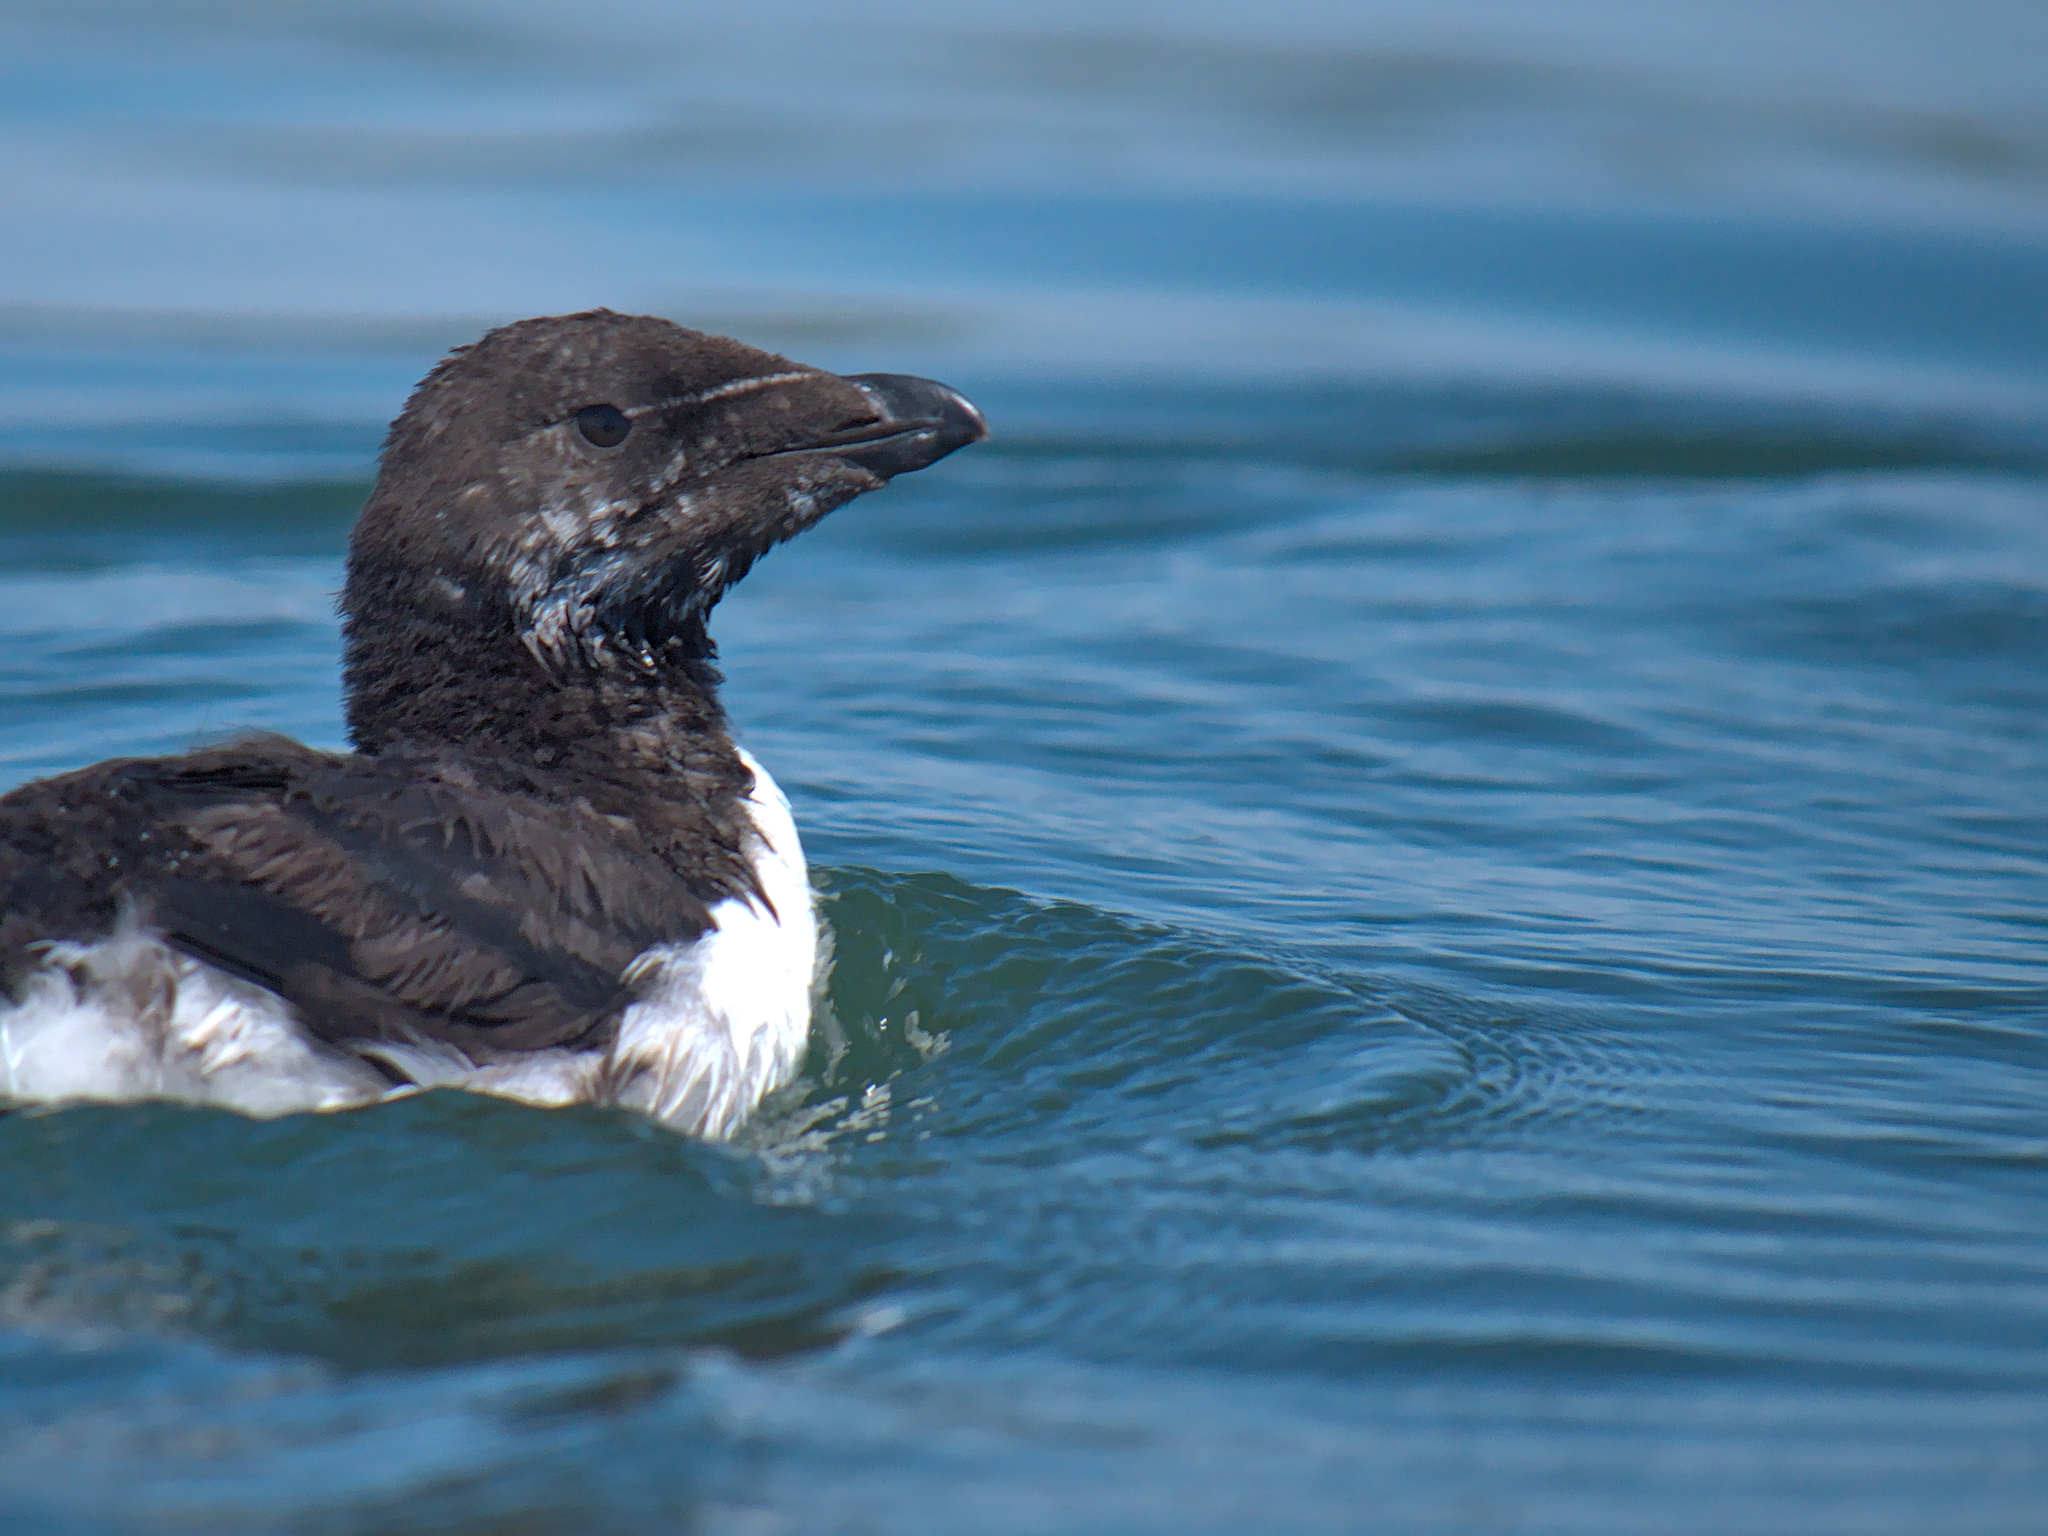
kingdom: Animalia
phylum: Chordata
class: Aves
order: Charadriiformes
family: Alcidae
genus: Alca
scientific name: Alca torda
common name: Razorbill
